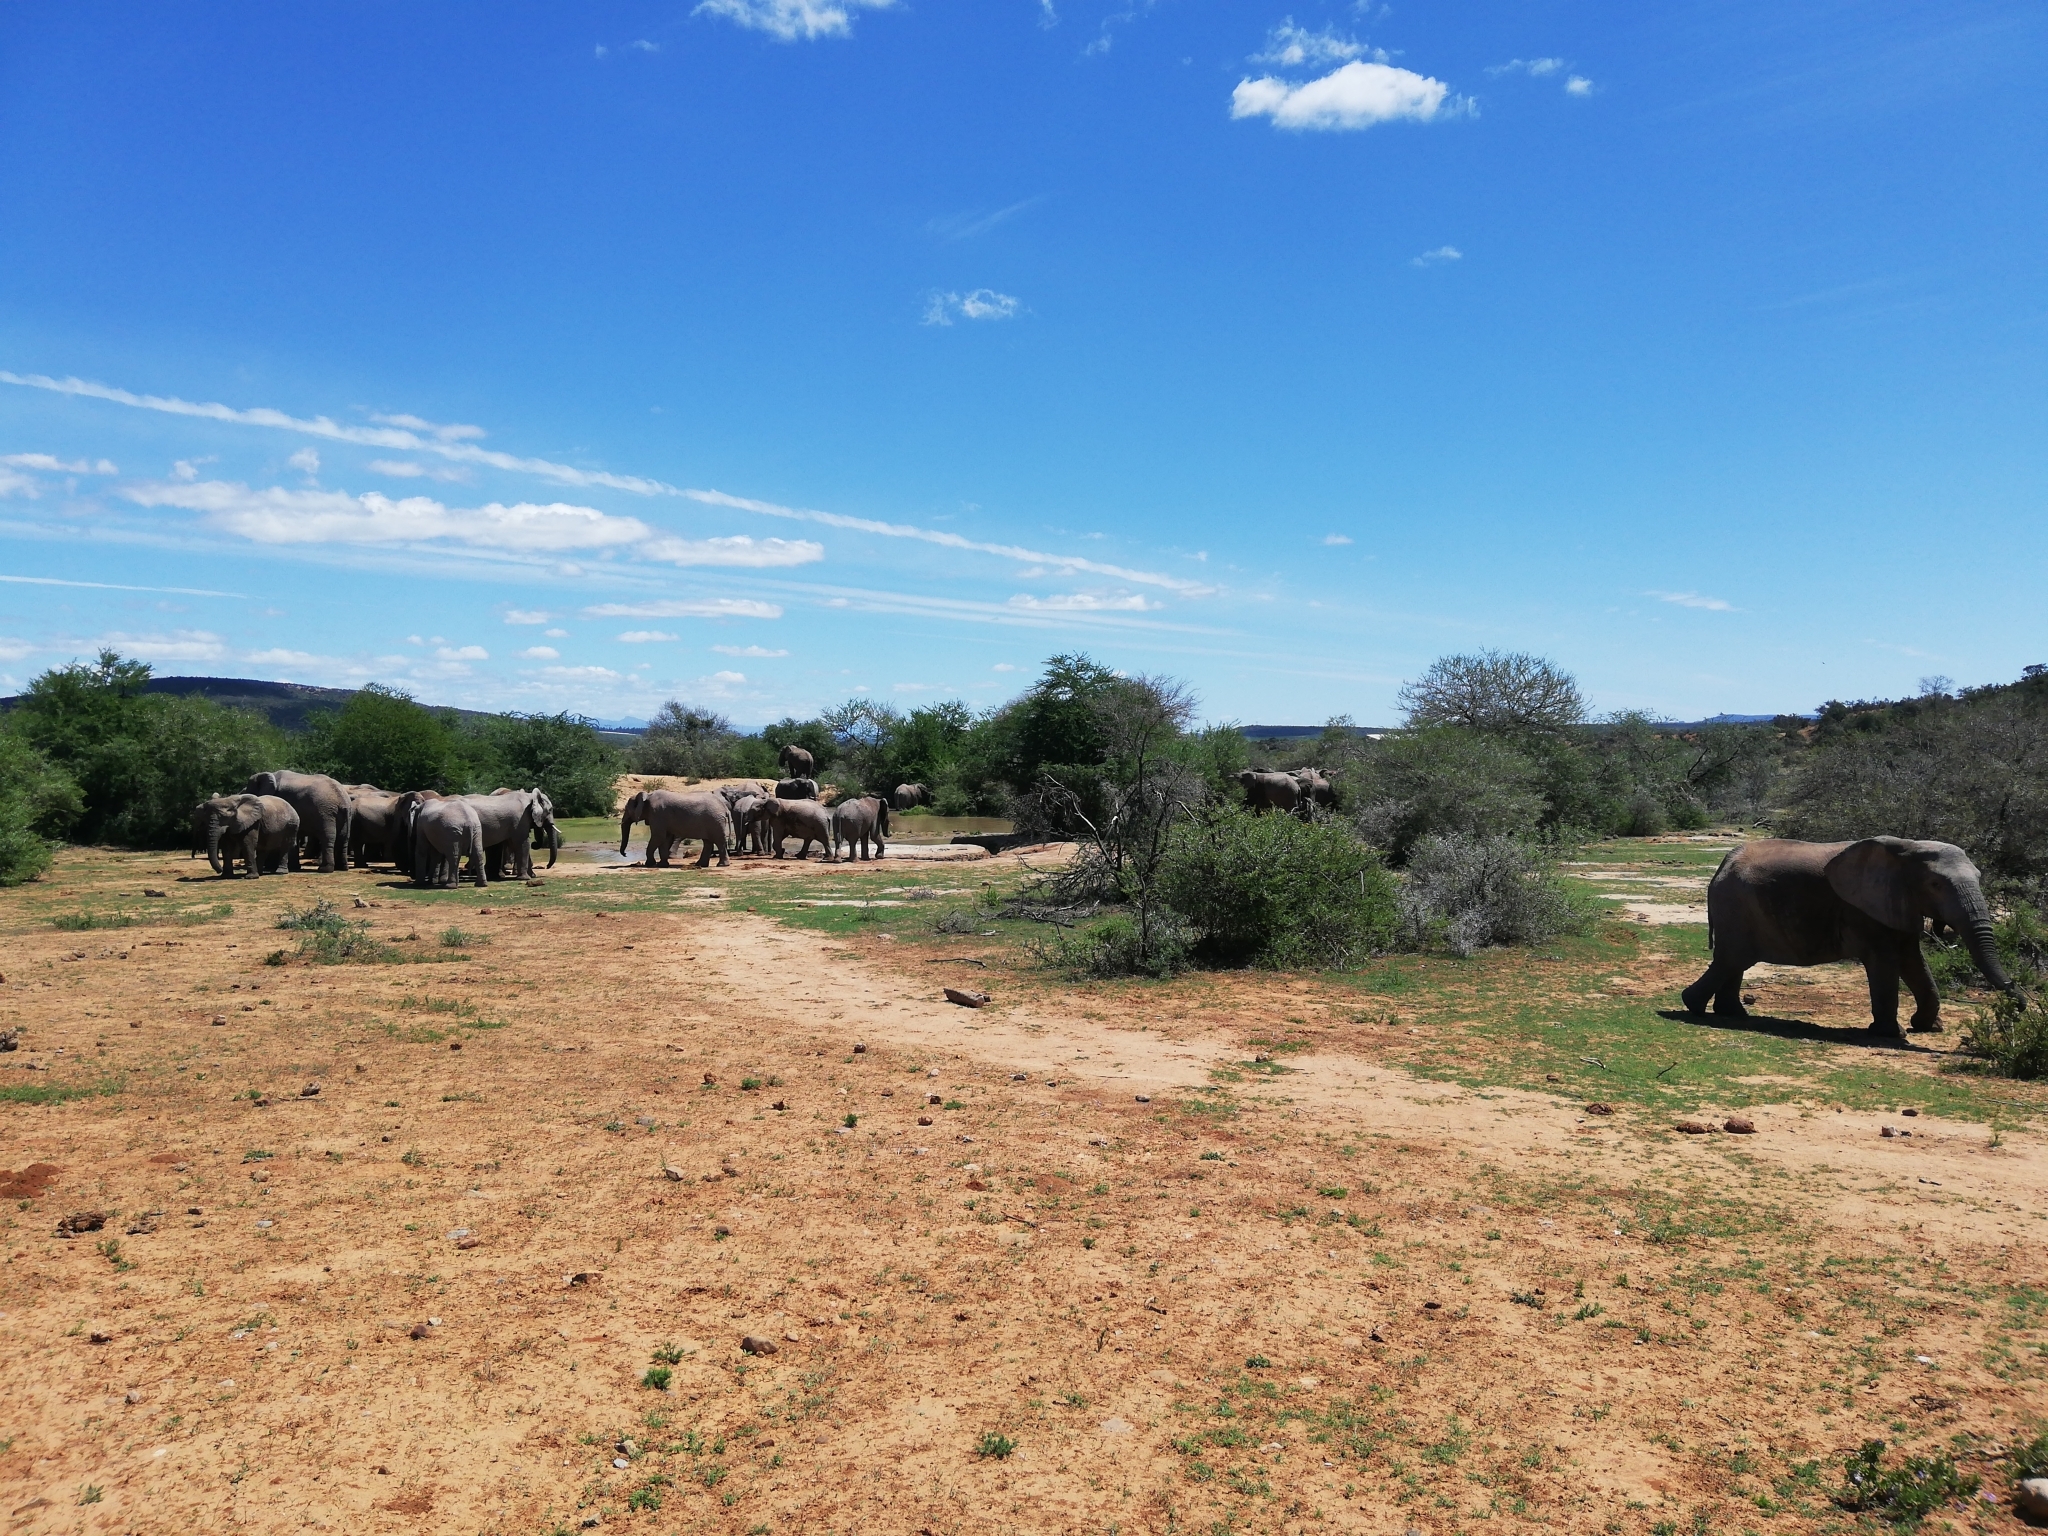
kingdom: Animalia
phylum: Chordata
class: Mammalia
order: Proboscidea
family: Elephantidae
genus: Loxodonta
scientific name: Loxodonta africana
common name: African elephant
